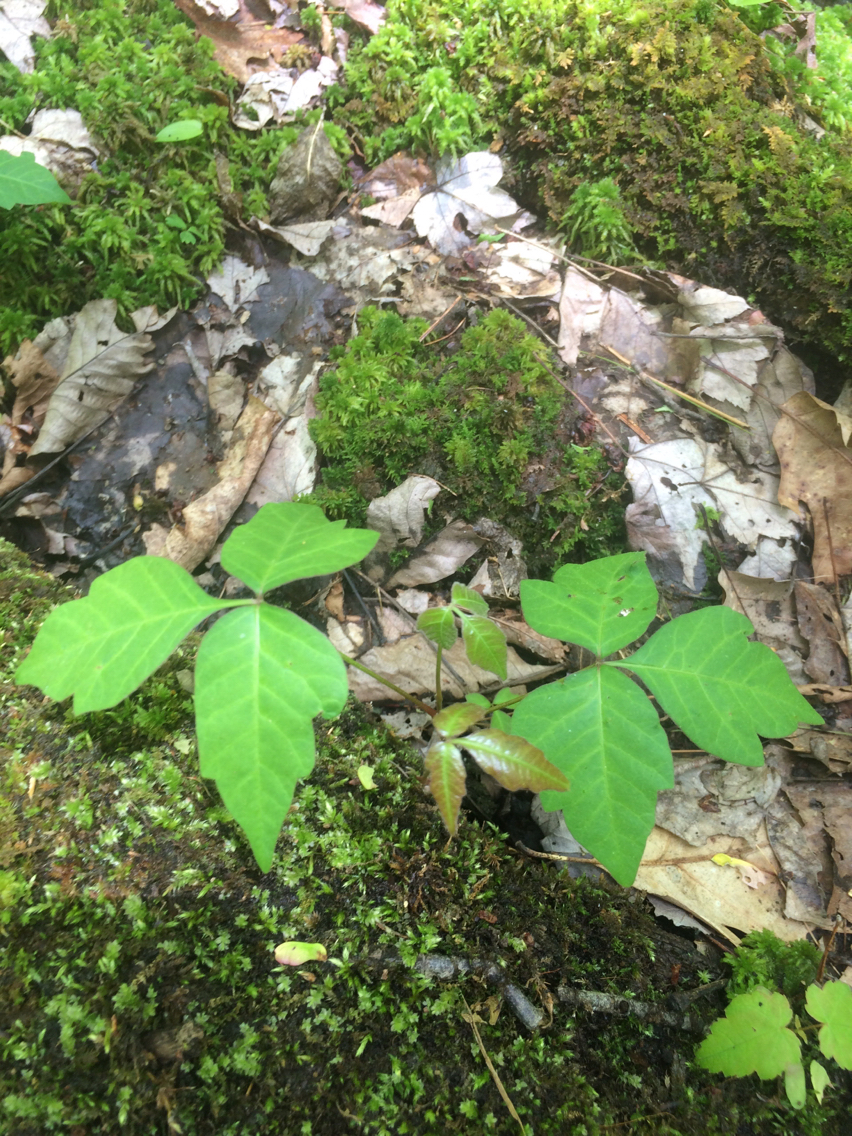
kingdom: Plantae
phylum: Tracheophyta
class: Magnoliopsida
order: Sapindales
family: Anacardiaceae
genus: Toxicodendron
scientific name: Toxicodendron radicans
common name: Poison ivy
